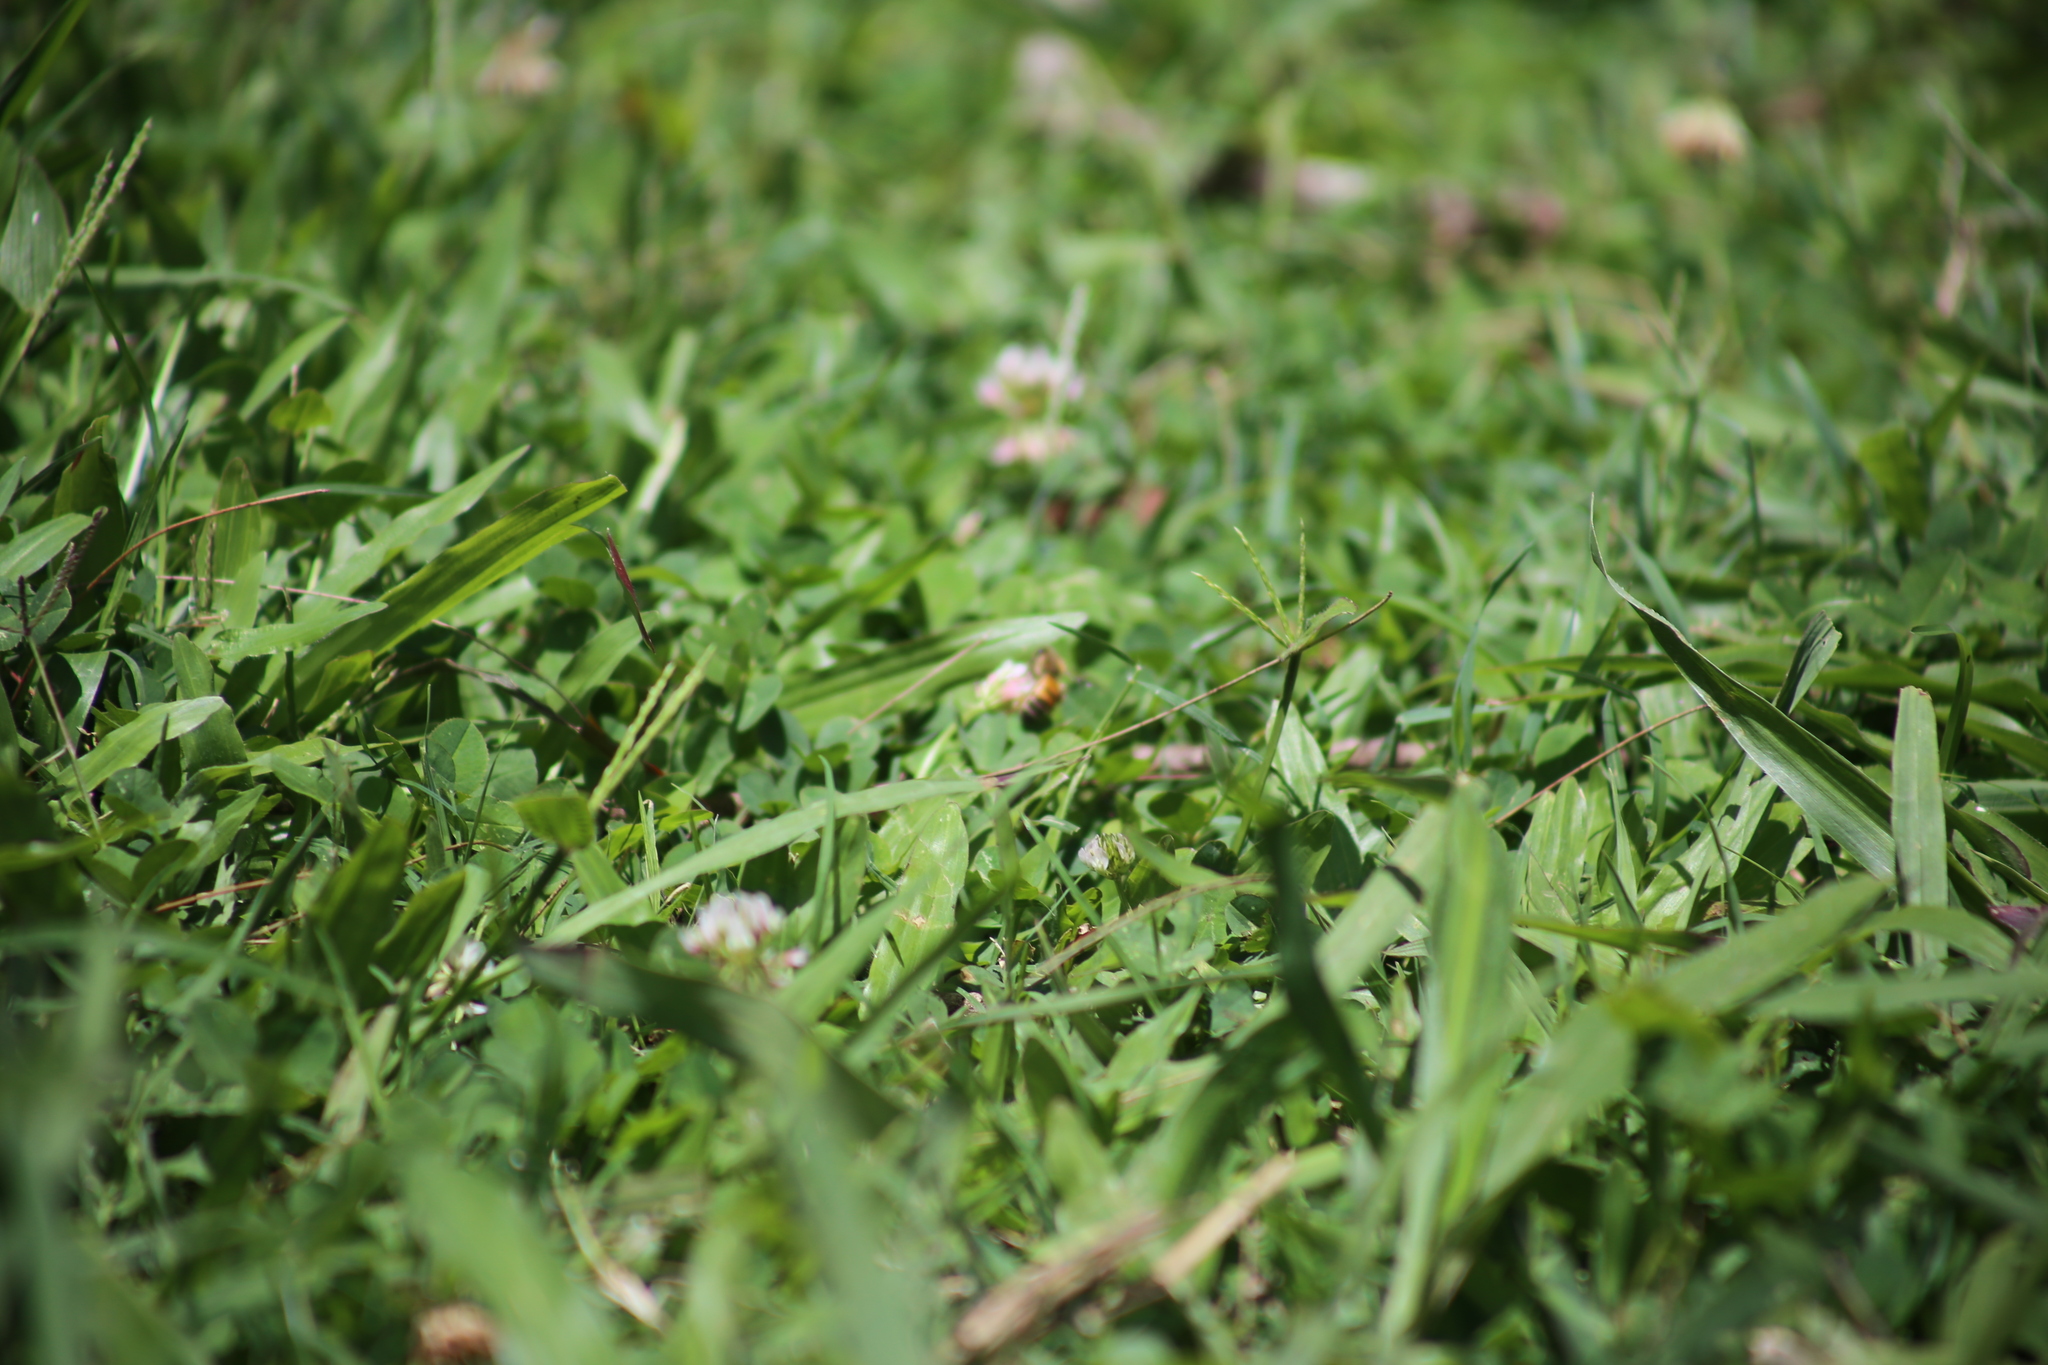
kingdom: Animalia
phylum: Arthropoda
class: Insecta
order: Hymenoptera
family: Apidae
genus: Apis
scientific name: Apis mellifera
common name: Honey bee
